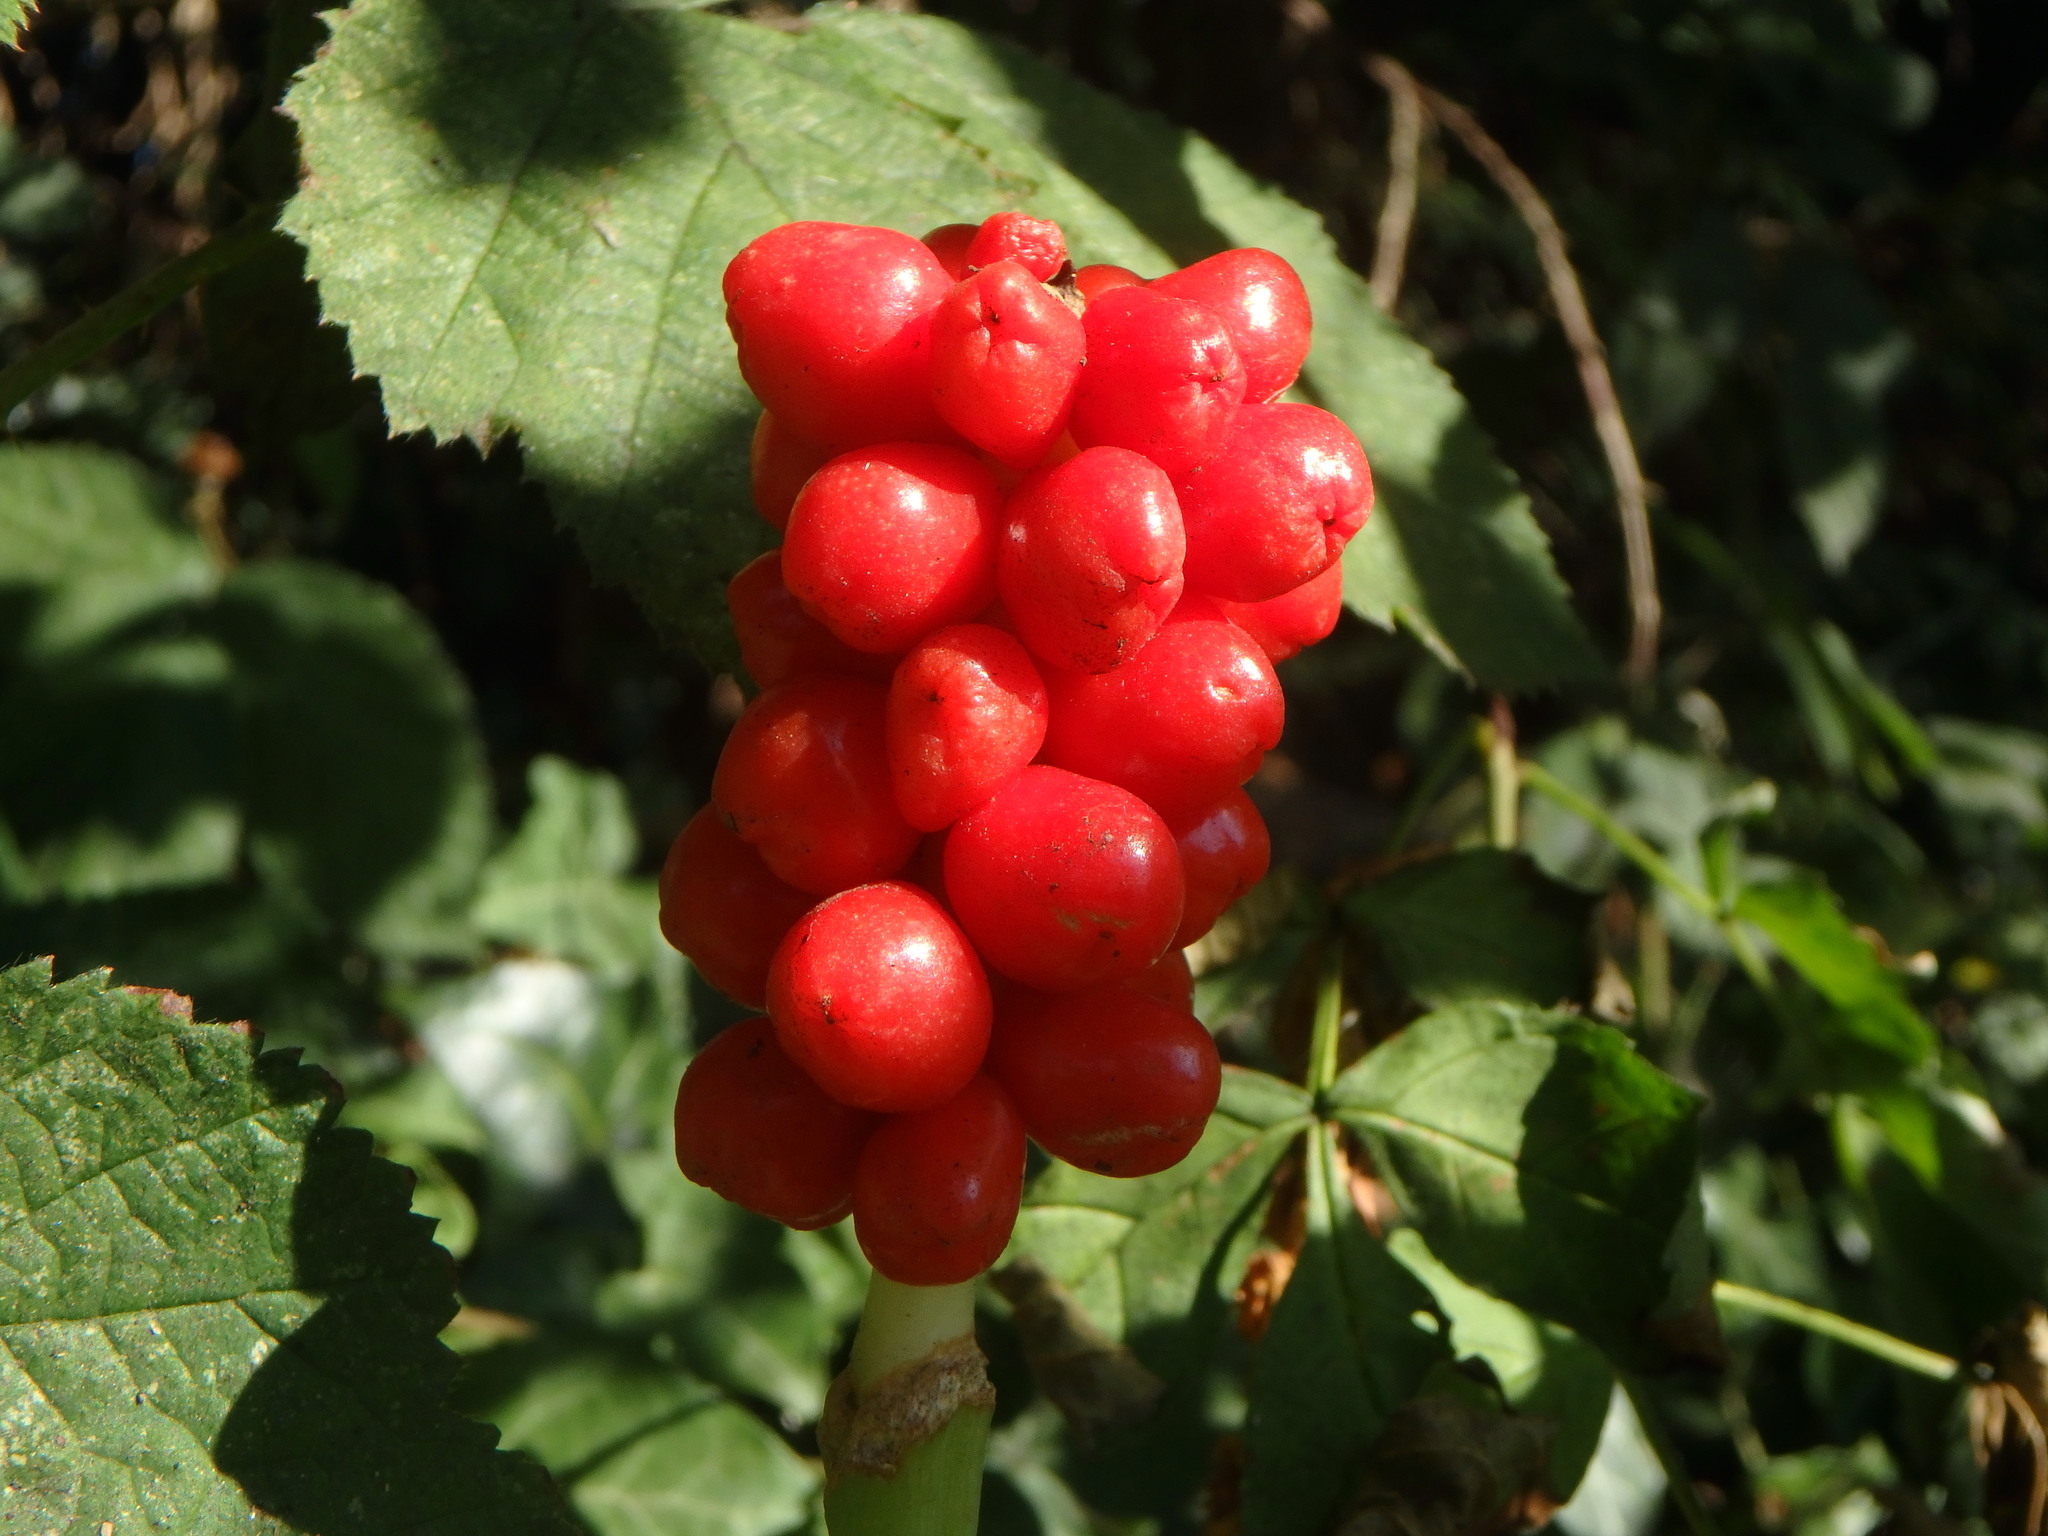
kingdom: Plantae
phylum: Tracheophyta
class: Liliopsida
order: Alismatales
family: Araceae
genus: Arum
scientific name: Arum maculatum
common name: Lords-and-ladies
